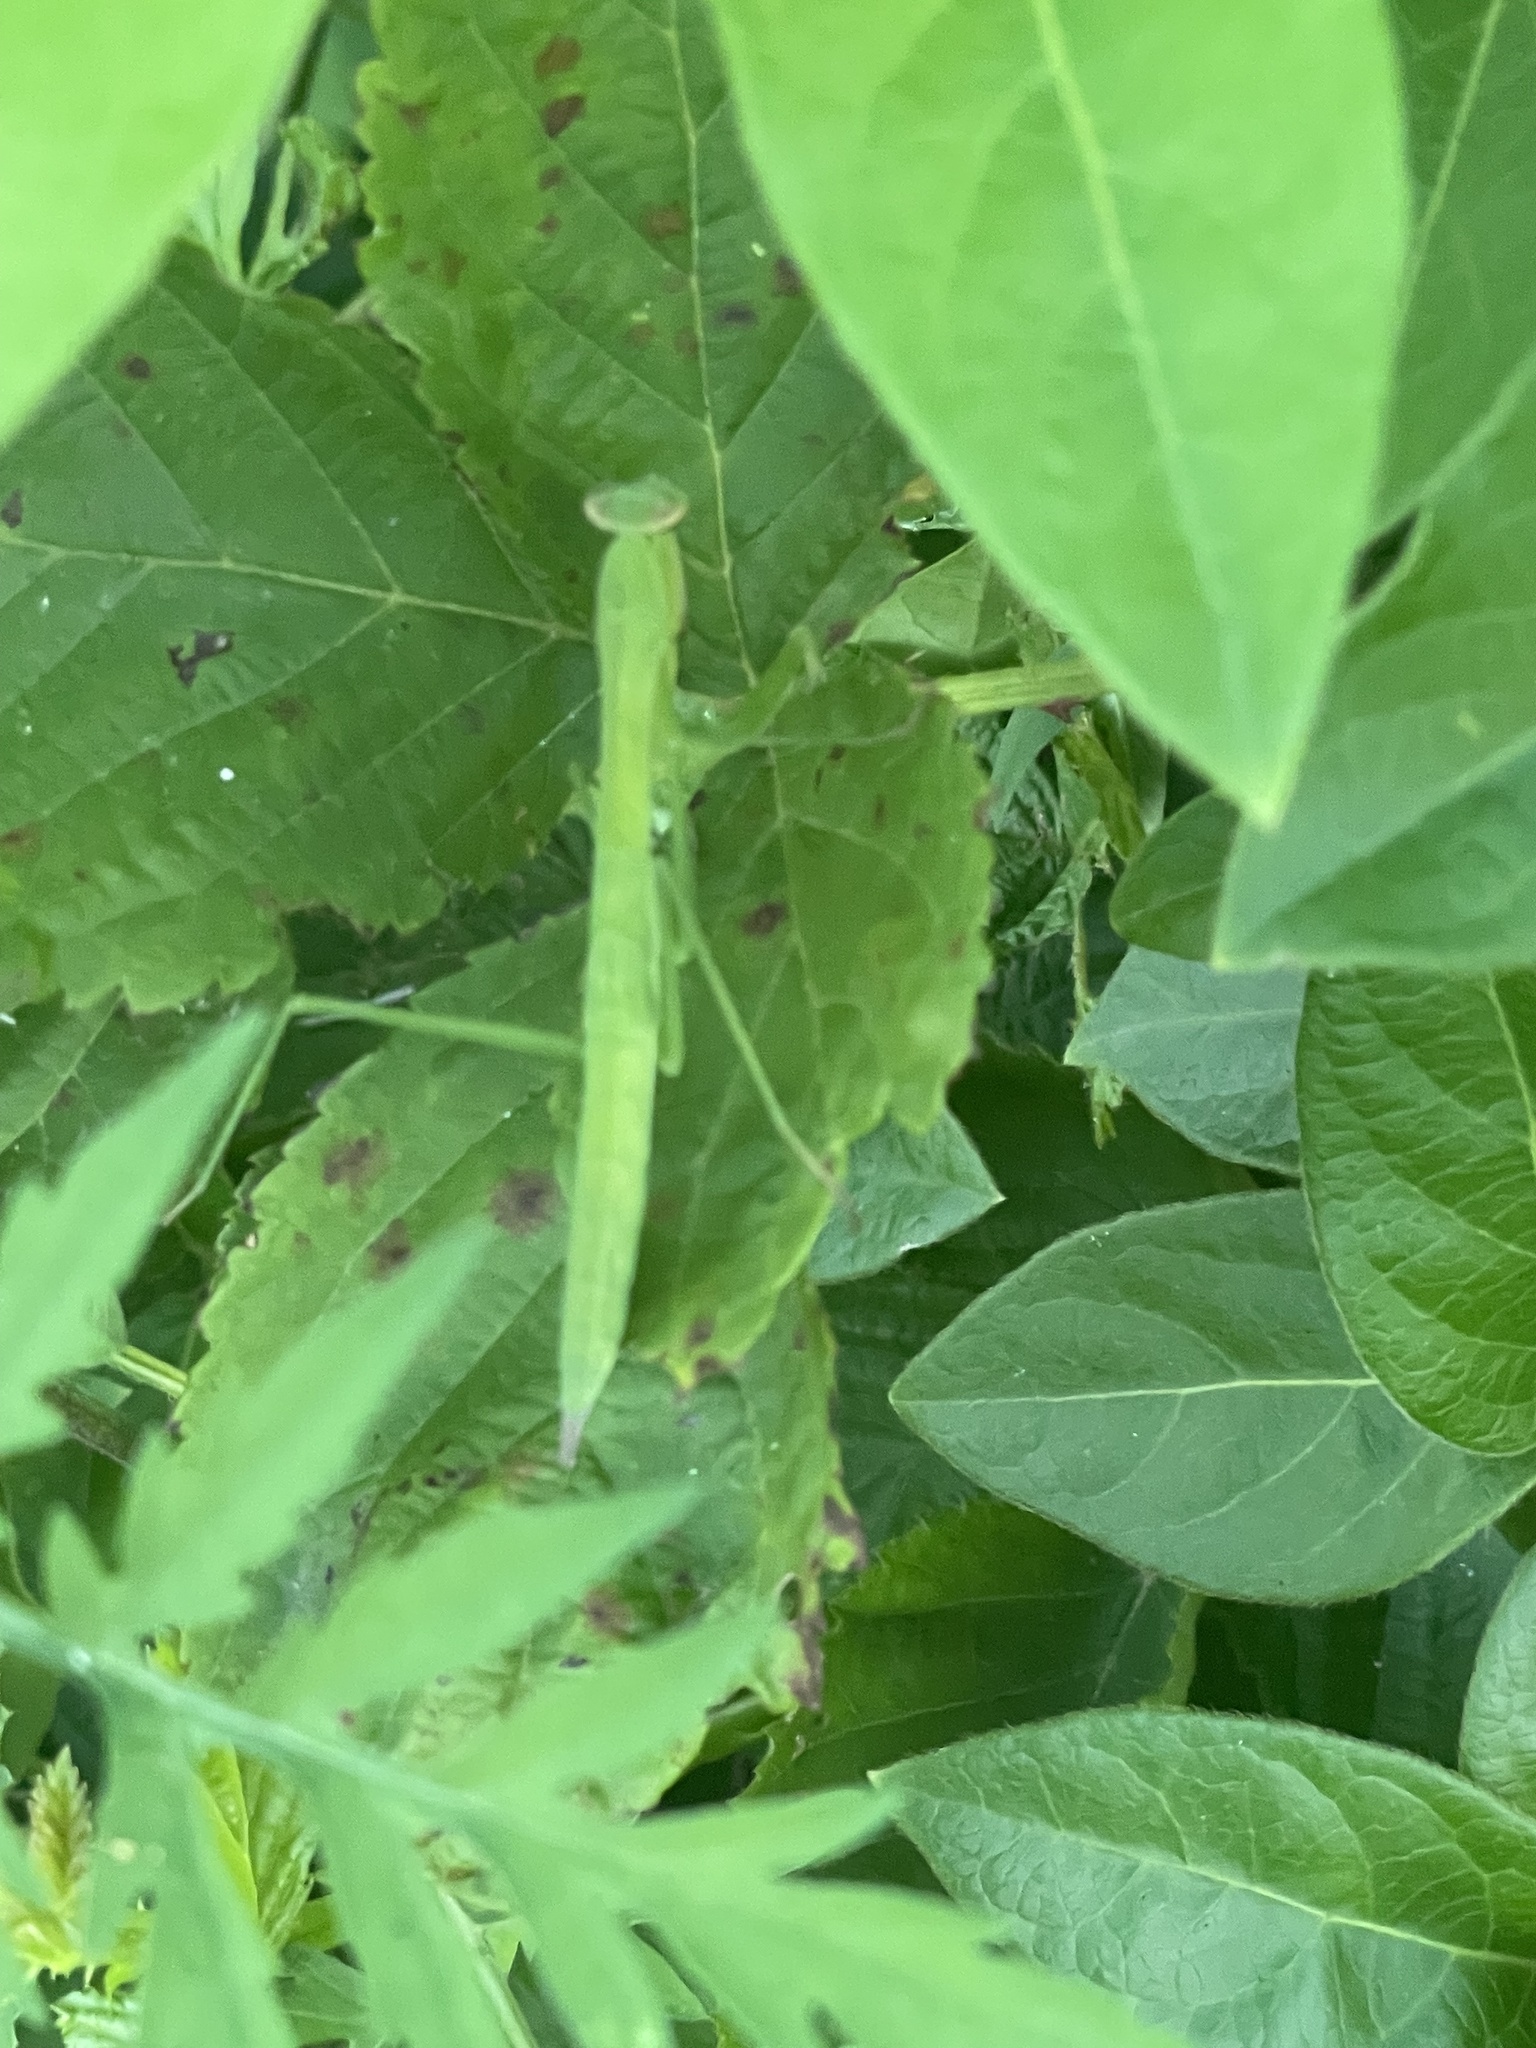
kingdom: Animalia
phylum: Arthropoda
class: Insecta
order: Mantodea
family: Mantidae
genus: Tenodera
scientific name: Tenodera sinensis
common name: Chinese mantis
